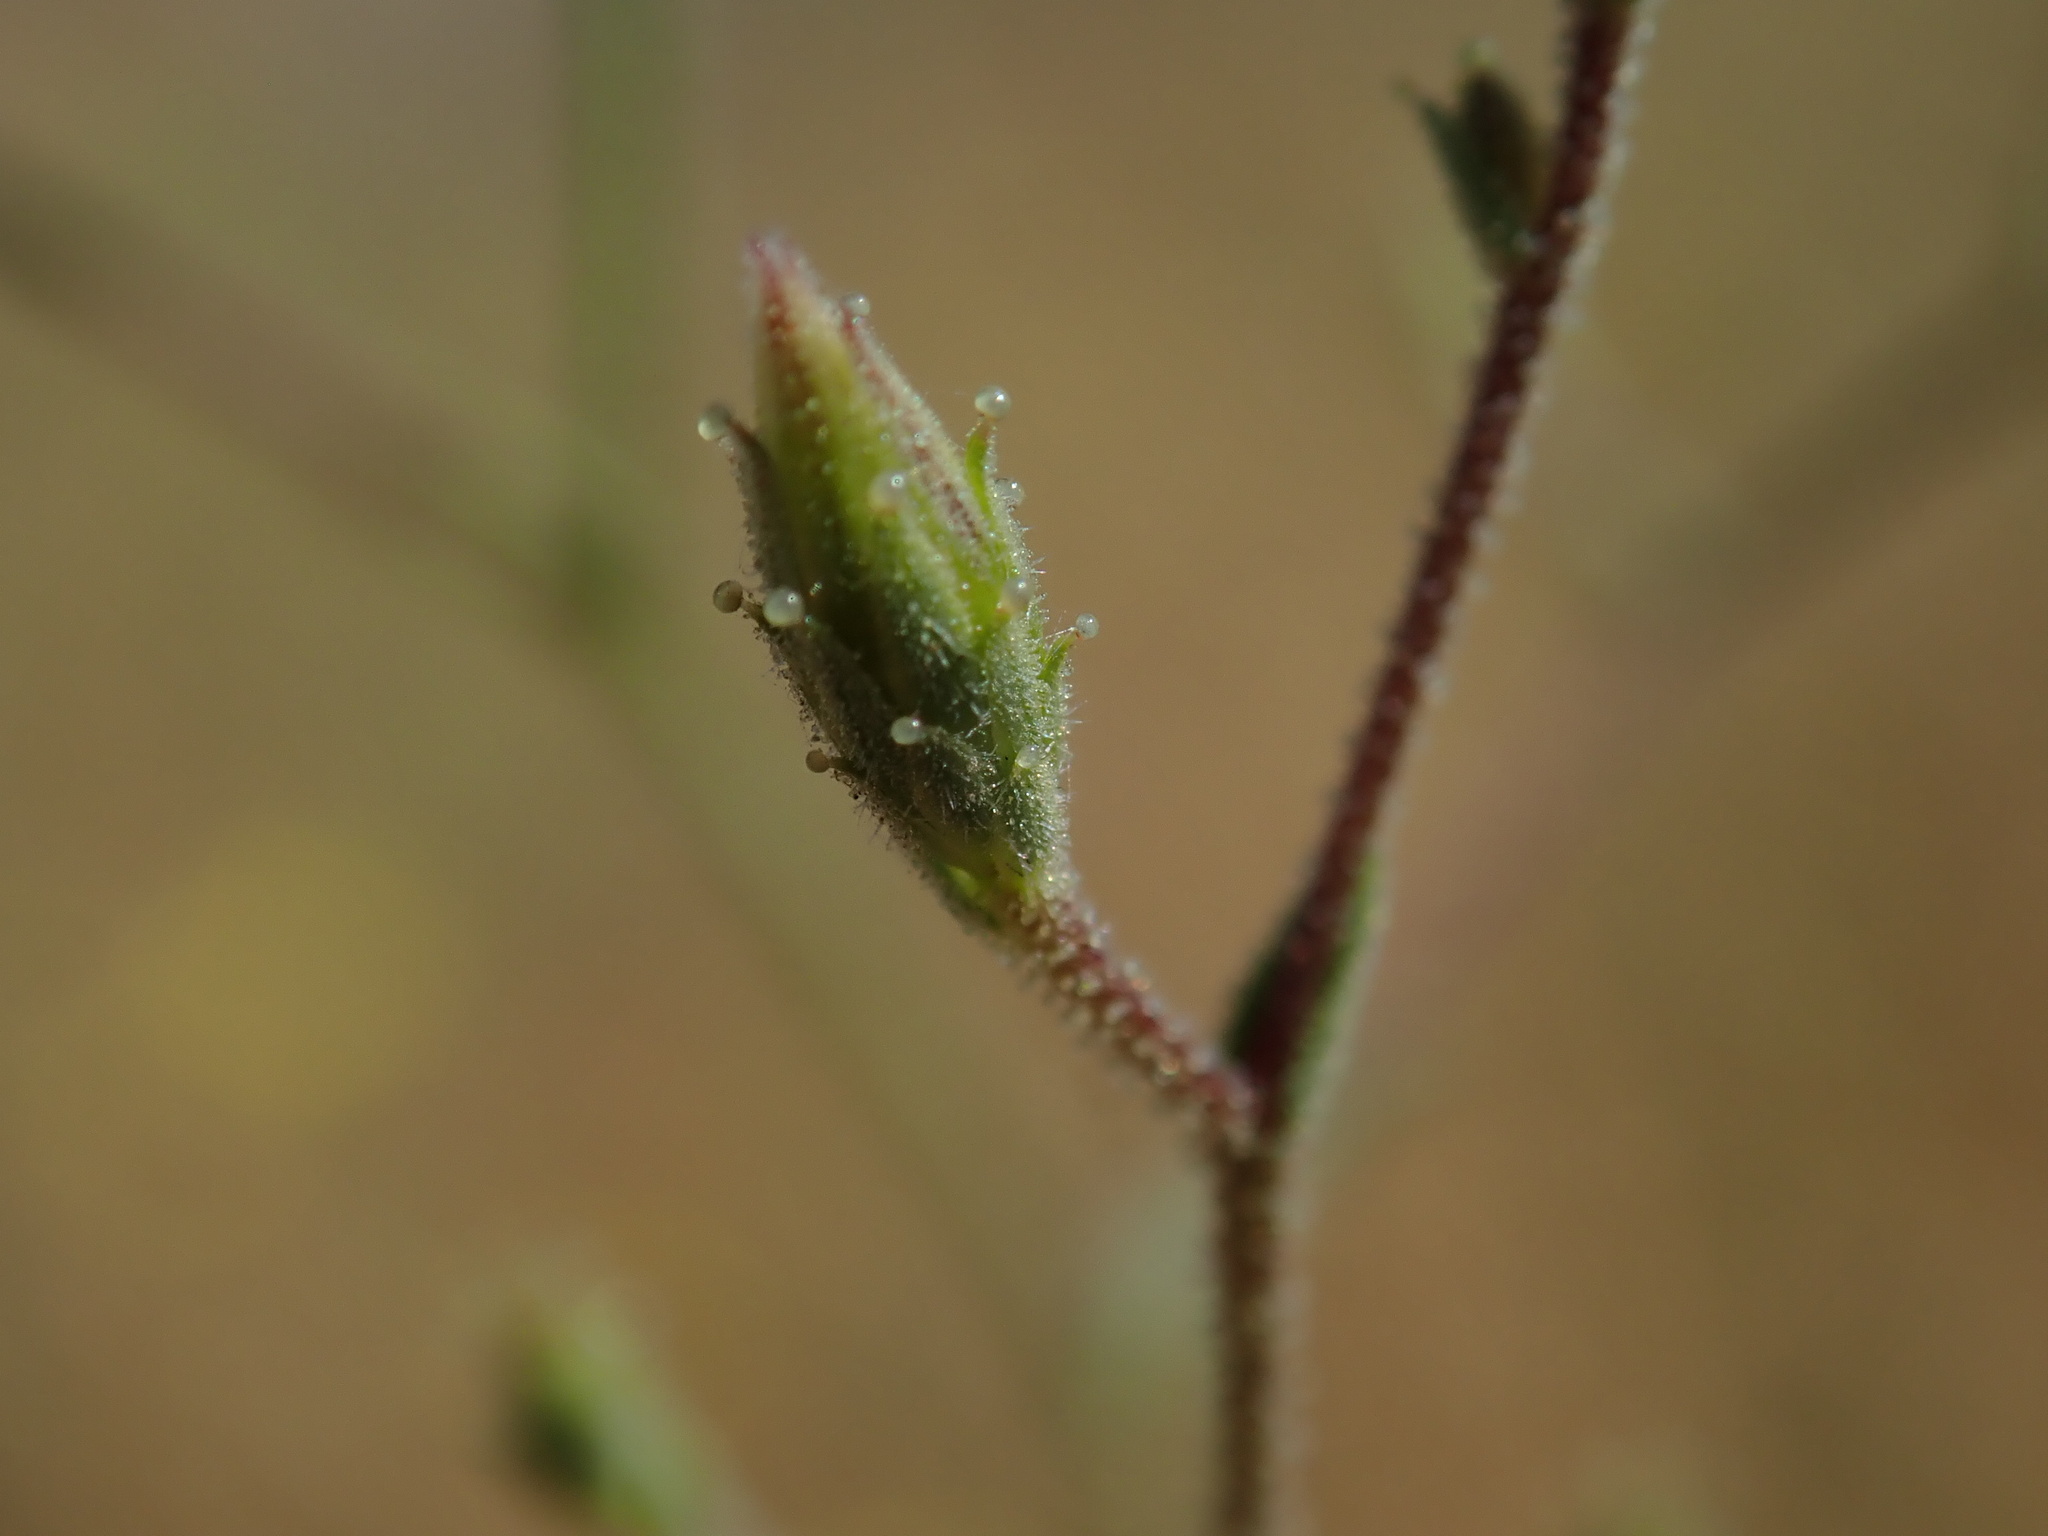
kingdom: Plantae
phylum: Tracheophyta
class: Magnoliopsida
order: Asterales
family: Asteraceae
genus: Benitoa
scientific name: Benitoa occidentalis
